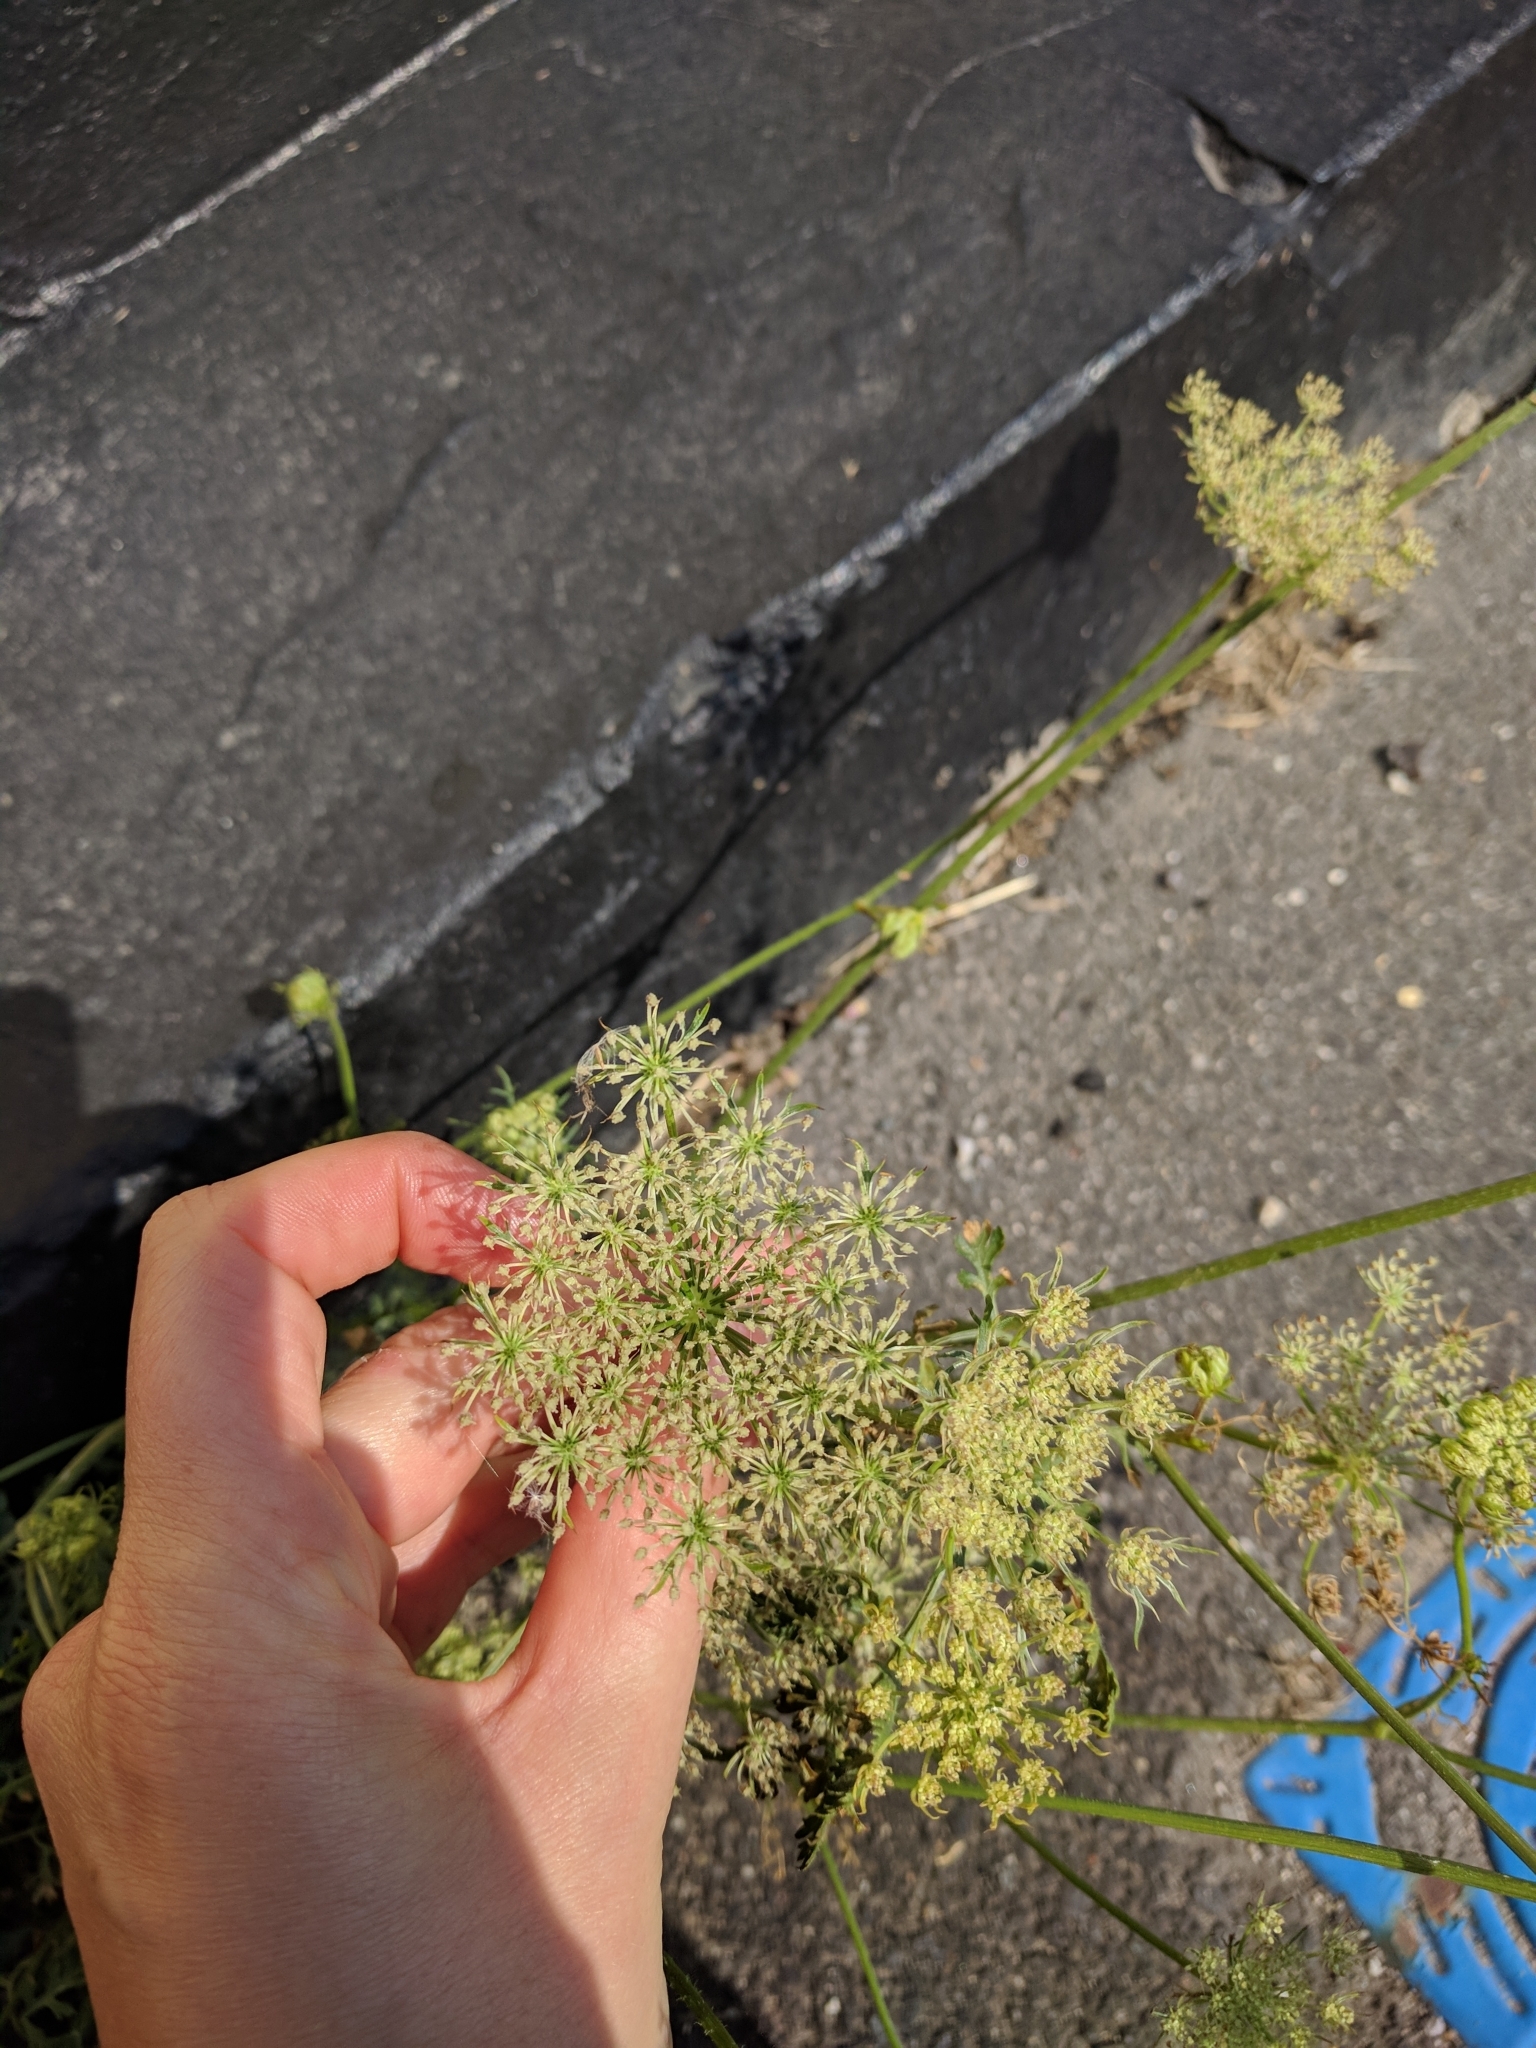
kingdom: Plantae
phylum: Tracheophyta
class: Magnoliopsida
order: Apiales
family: Apiaceae
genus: Daucus
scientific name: Daucus carota
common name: Wild carrot
